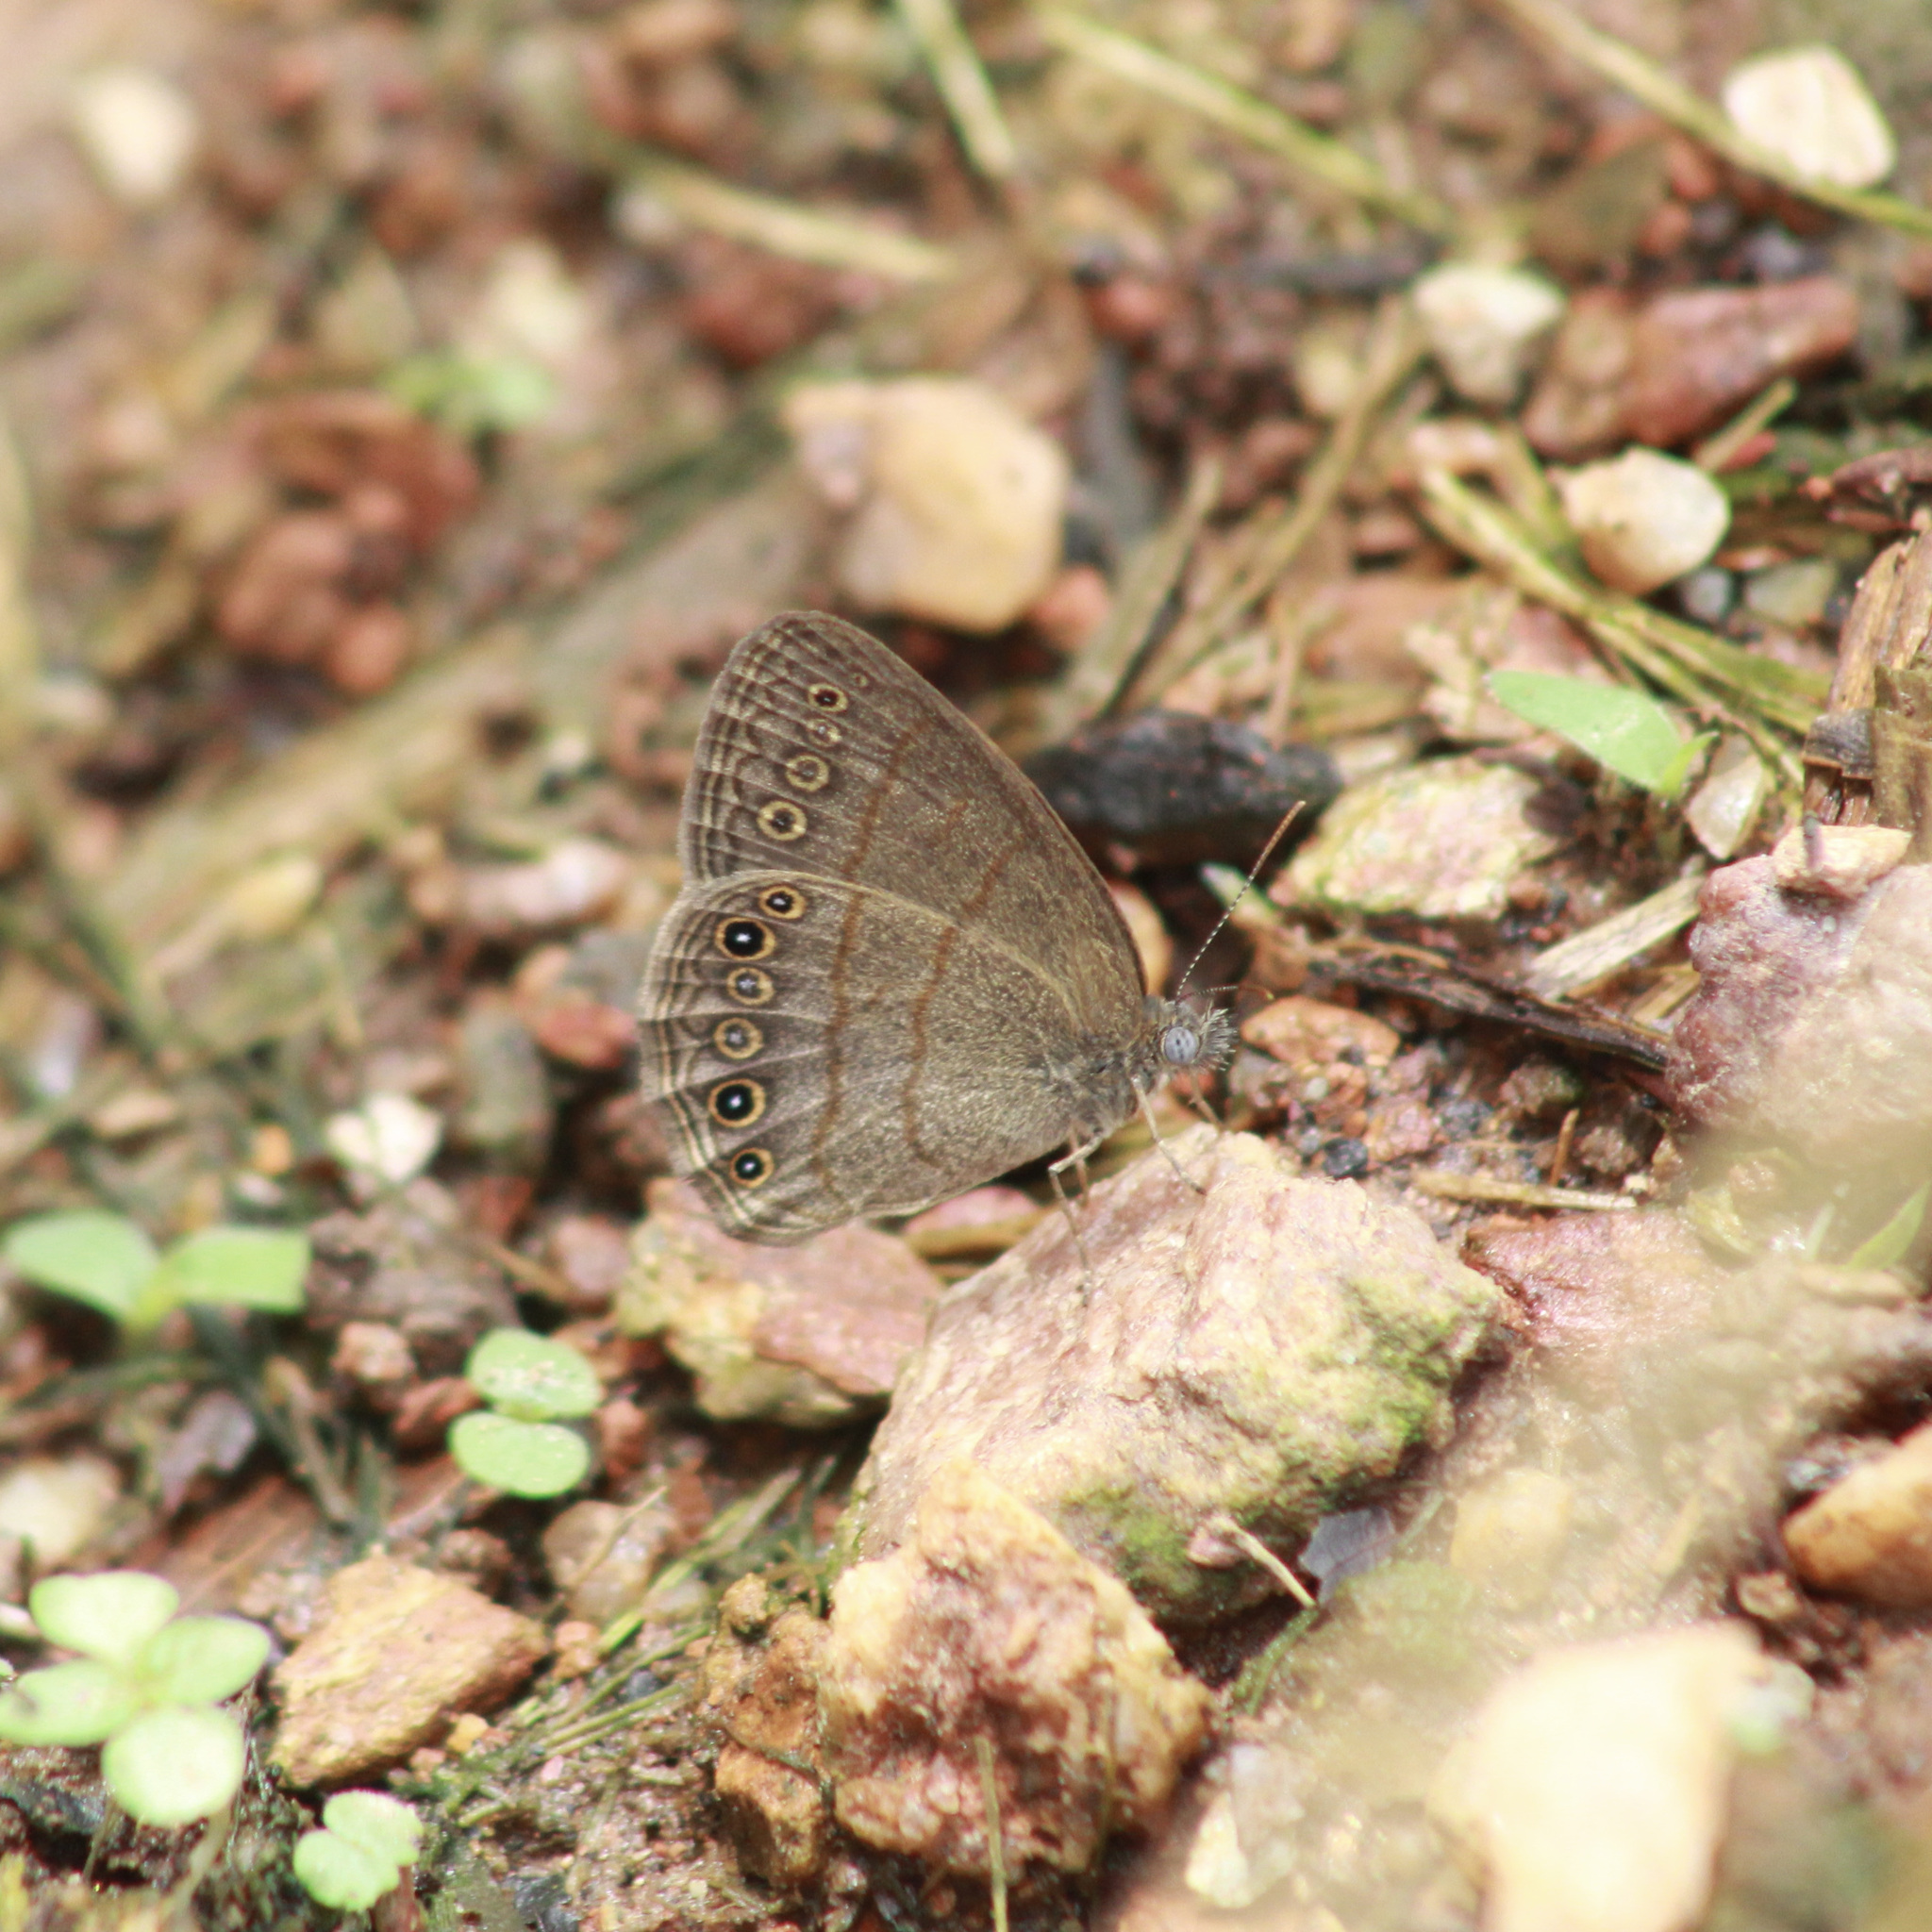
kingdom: Animalia
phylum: Arthropoda
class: Insecta
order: Lepidoptera
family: Nymphalidae
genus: Hermeuptychia
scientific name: Hermeuptychia canthe
